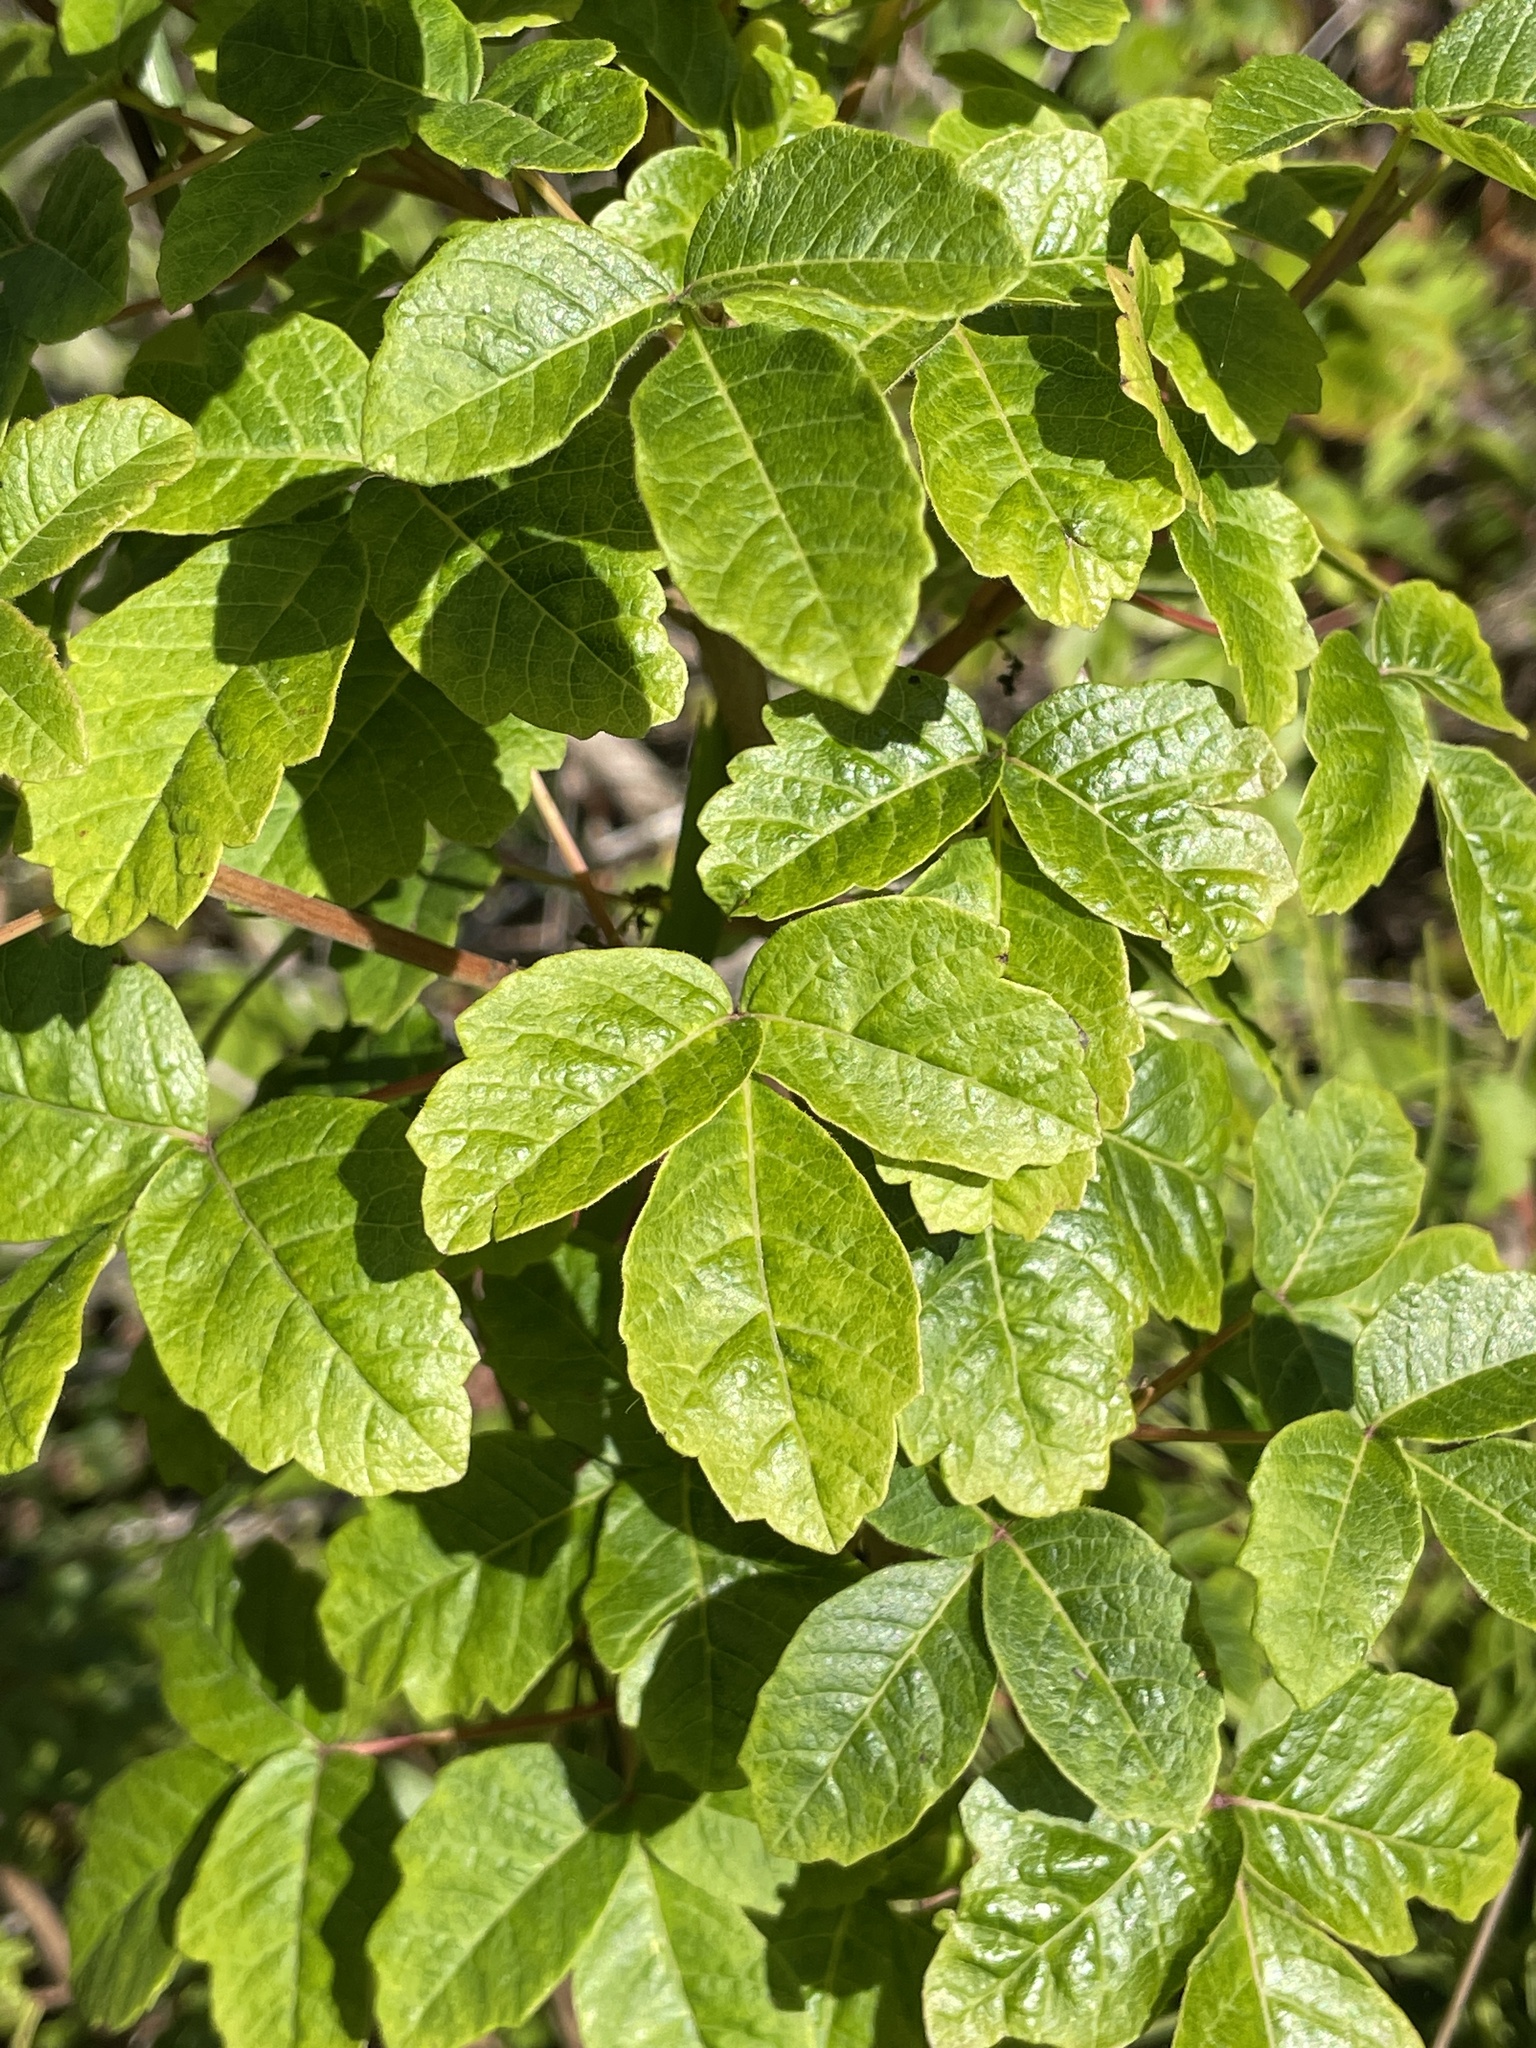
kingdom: Plantae
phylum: Tracheophyta
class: Magnoliopsida
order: Sapindales
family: Anacardiaceae
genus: Toxicodendron
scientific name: Toxicodendron diversilobum
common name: Pacific poison-oak
